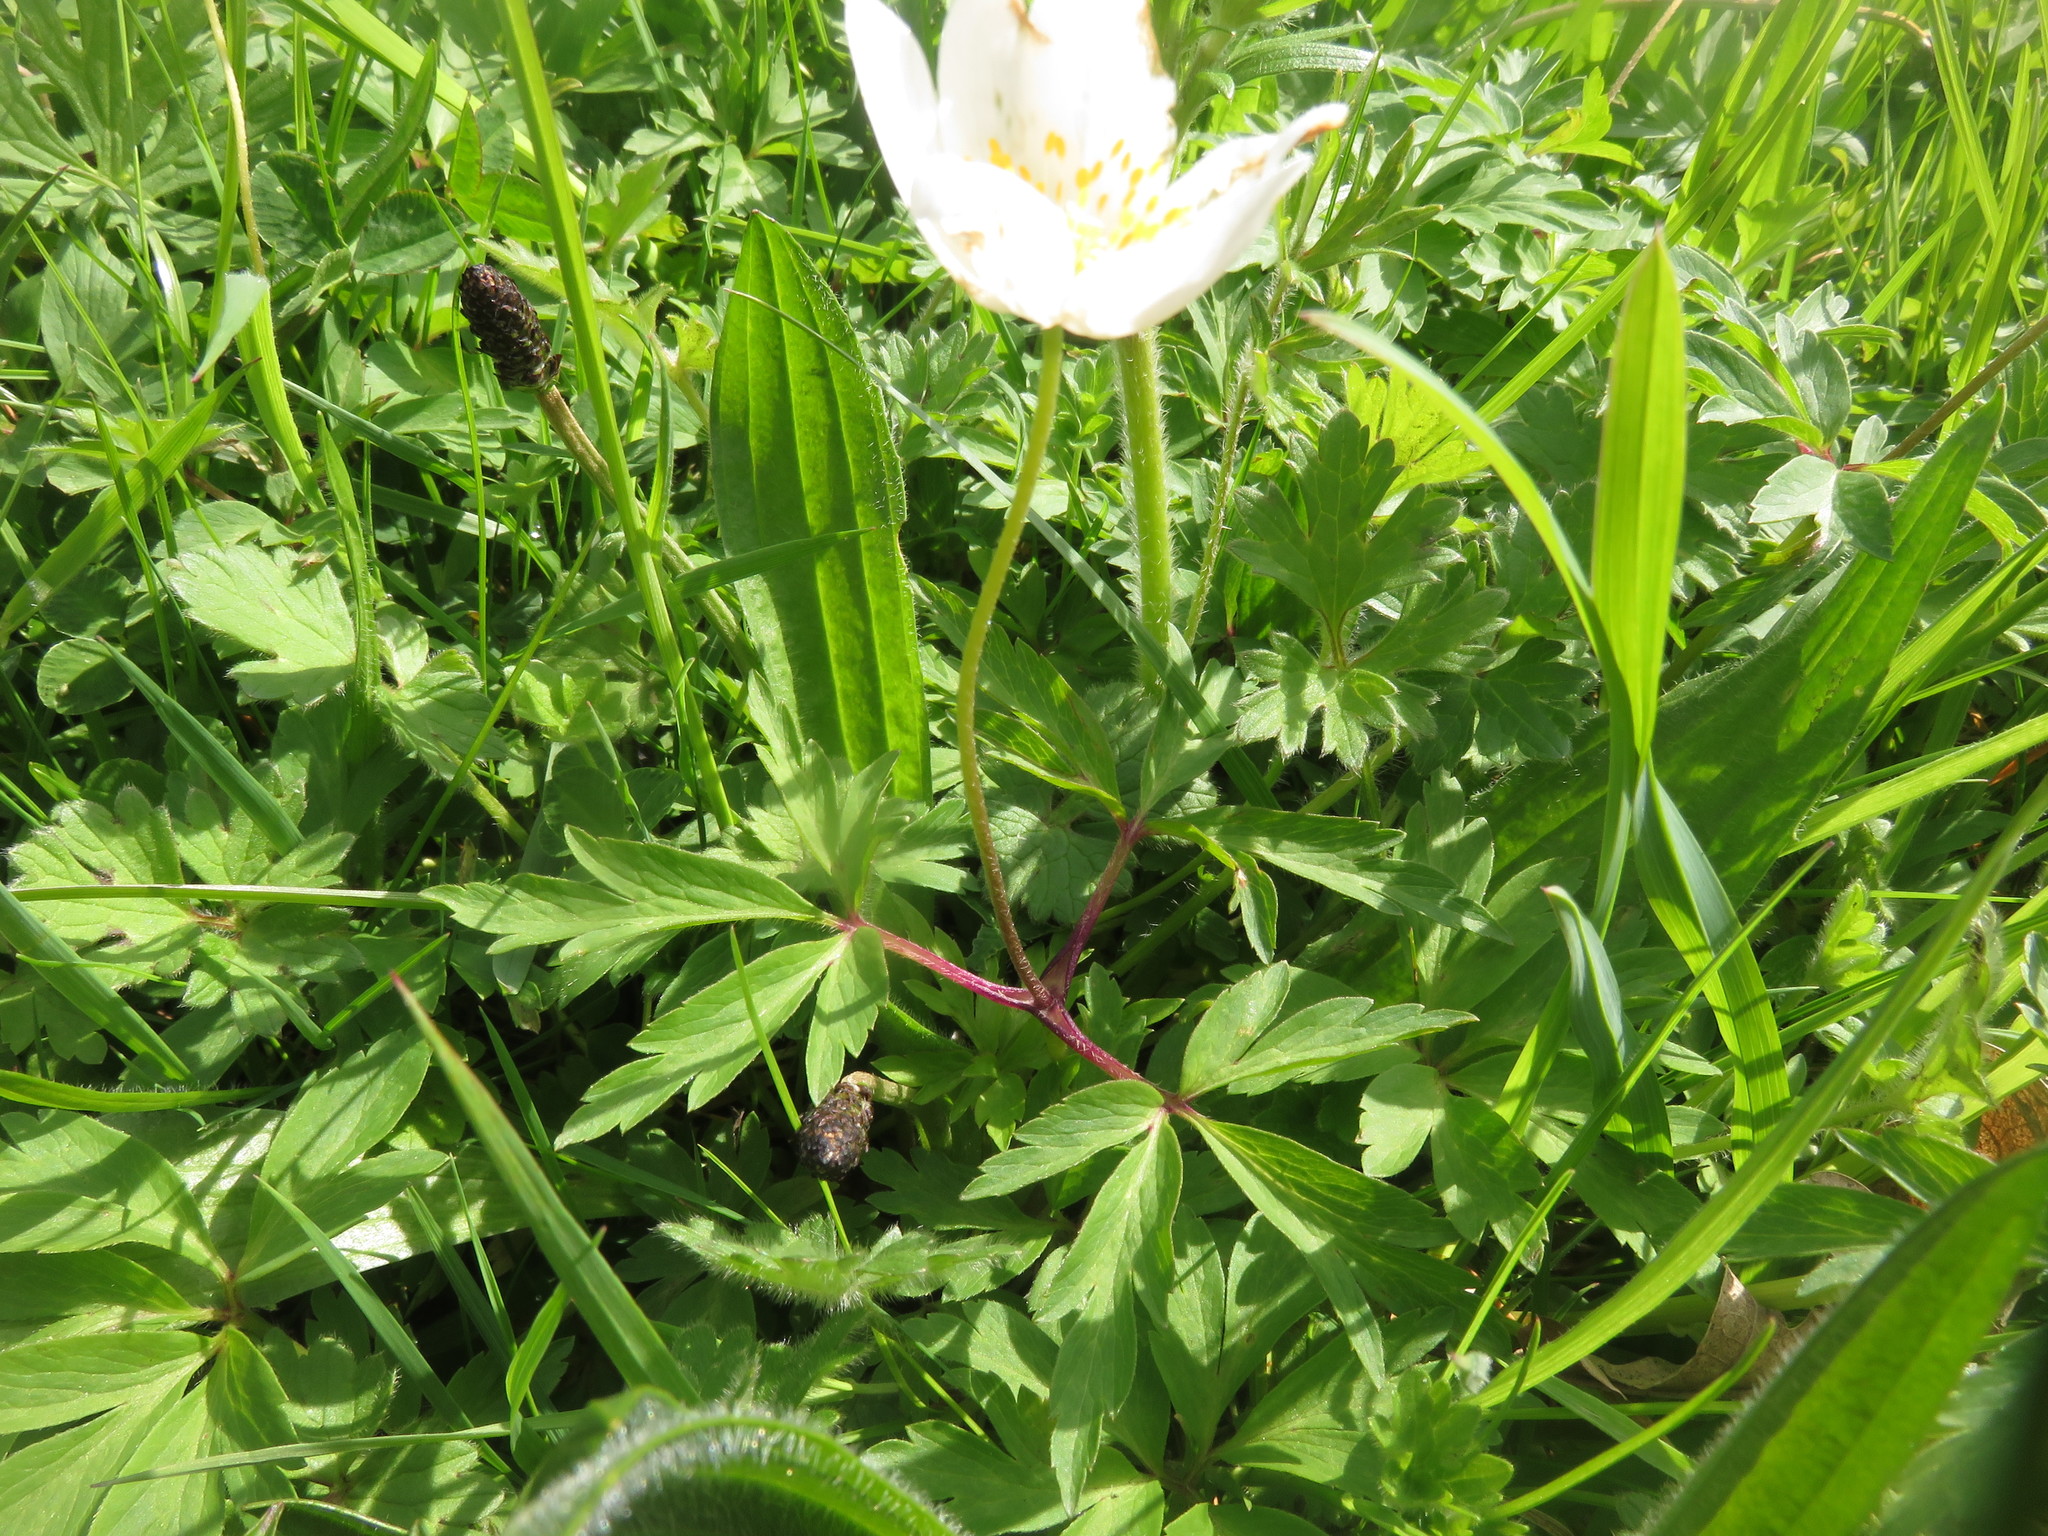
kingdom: Plantae
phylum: Tracheophyta
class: Magnoliopsida
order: Ranunculales
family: Ranunculaceae
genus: Anemone
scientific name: Anemone nemorosa
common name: Wood anemone
